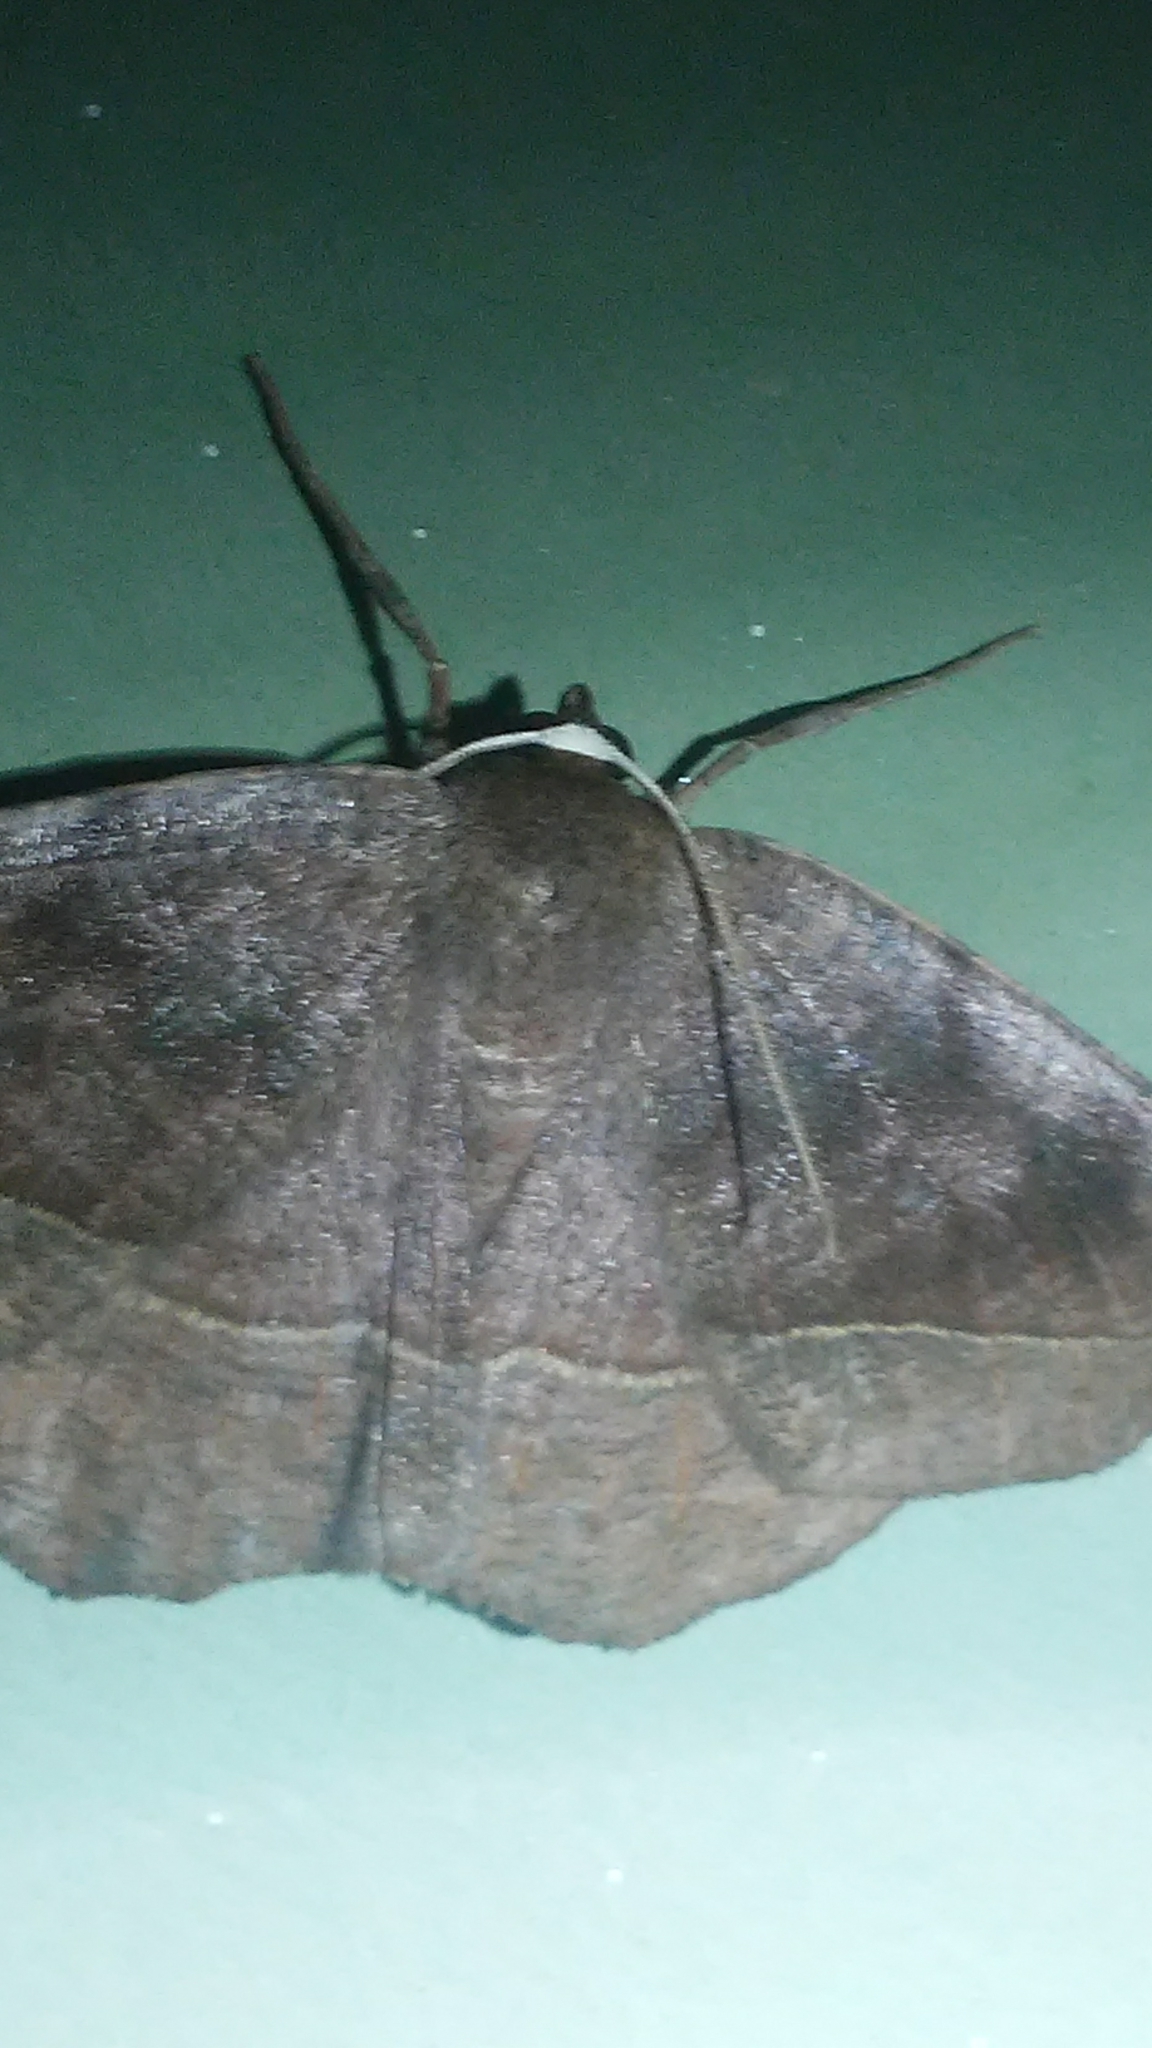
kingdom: Animalia
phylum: Arthropoda
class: Insecta
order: Lepidoptera
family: Geometridae
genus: Eutrapela
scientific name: Eutrapela clemataria
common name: Curved-toothed geometer
